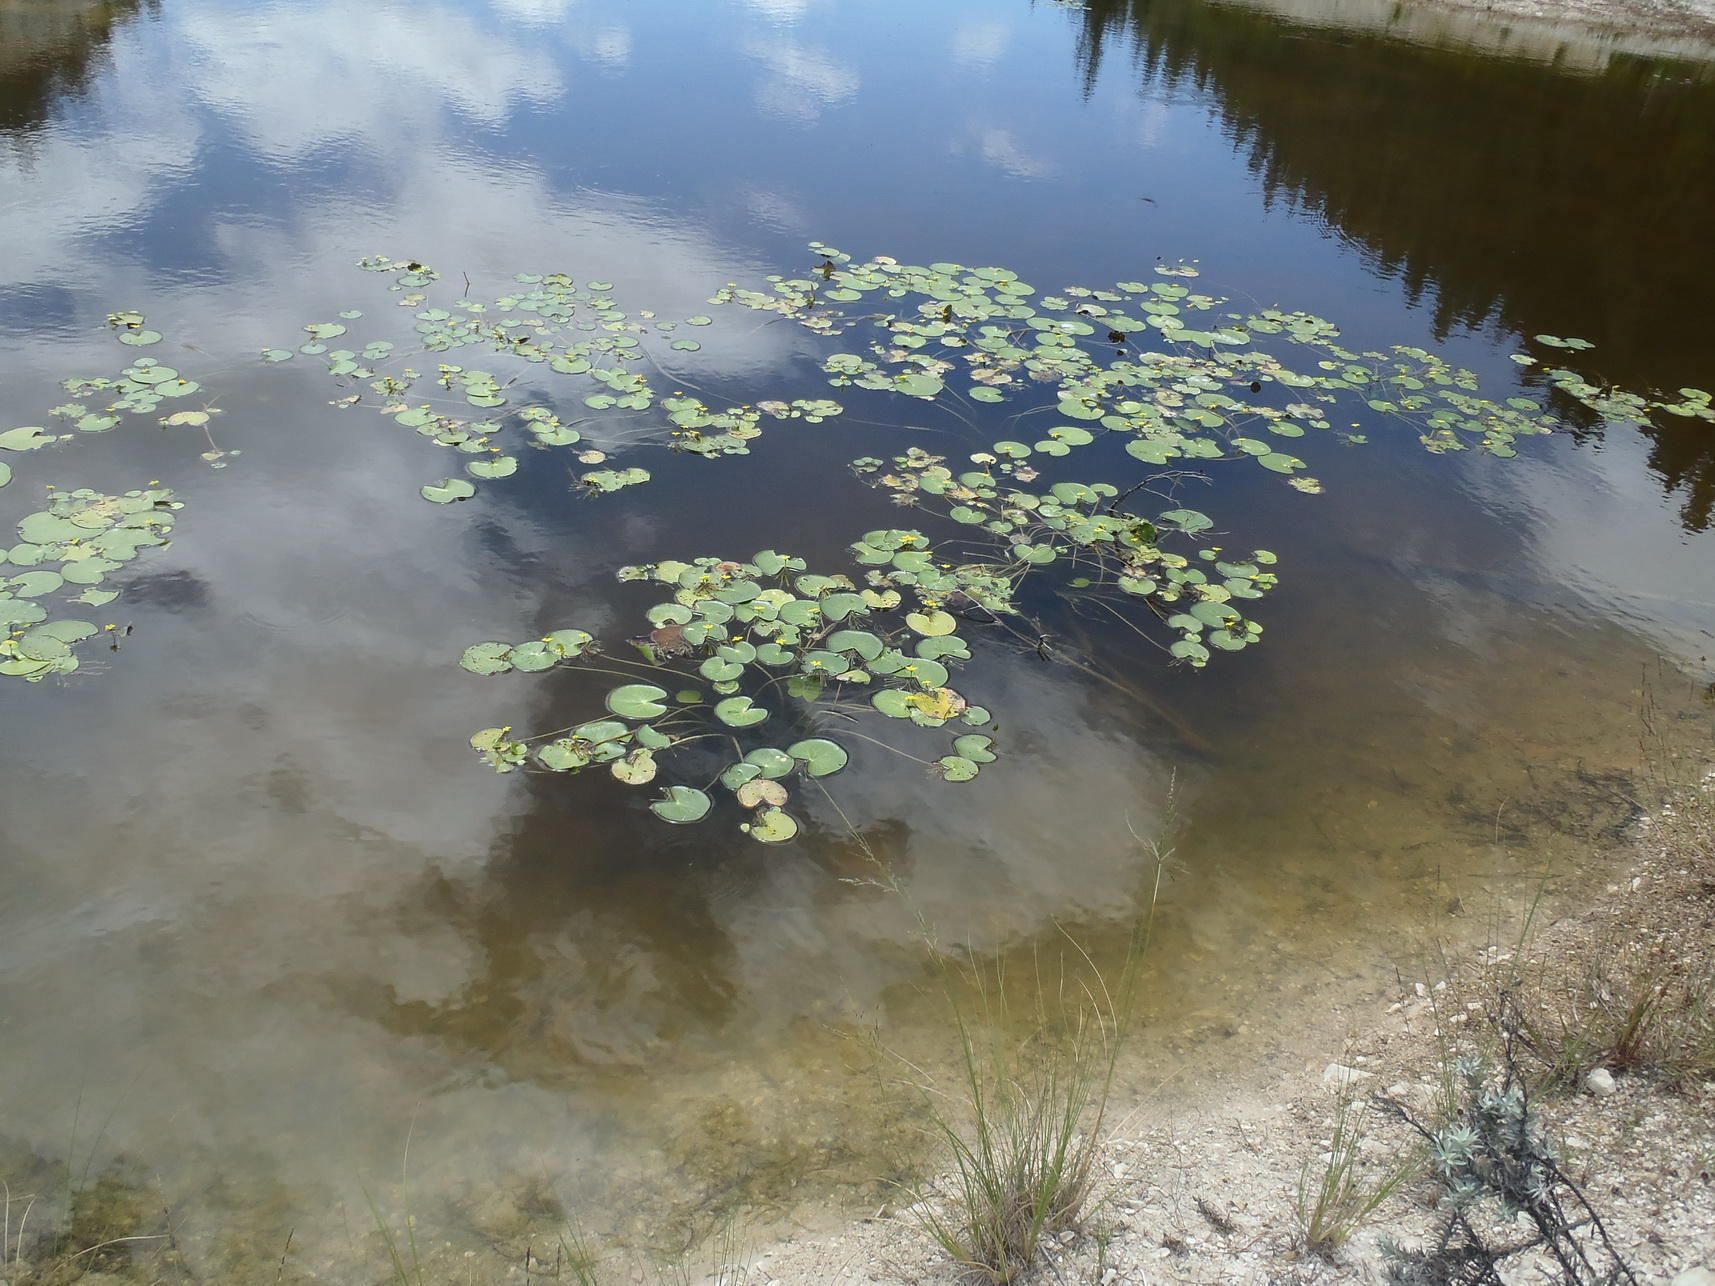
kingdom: Plantae
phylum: Tracheophyta
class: Magnoliopsida
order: Asterales
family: Menyanthaceae
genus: Nymphoides
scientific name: Nymphoides thunbergiana
